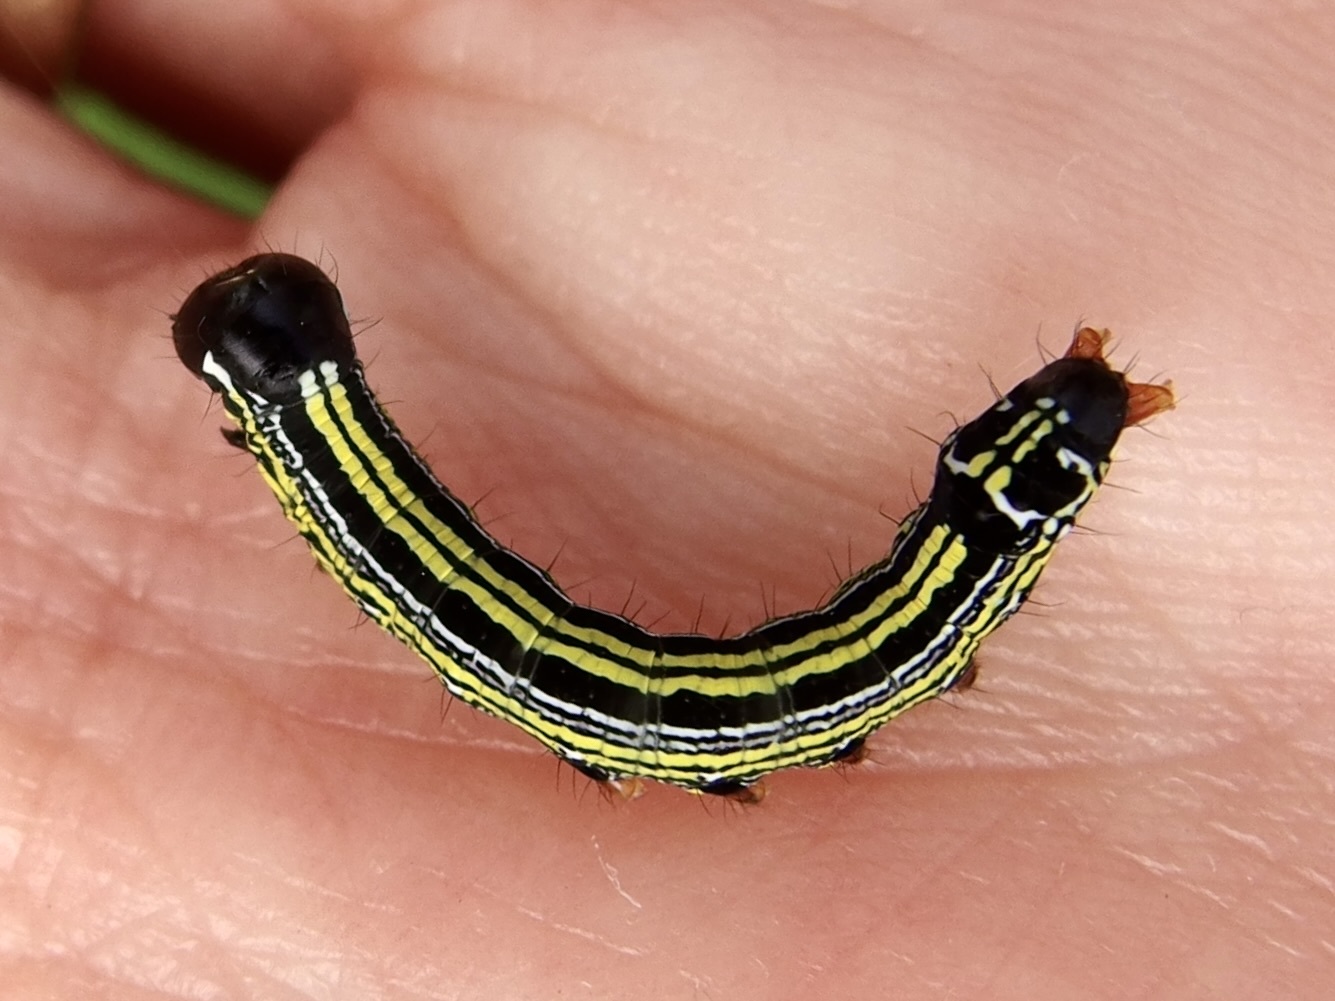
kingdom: Animalia
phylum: Arthropoda
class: Insecta
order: Lepidoptera
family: Notodontidae
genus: Cargida
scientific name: Cargida pyrrha
